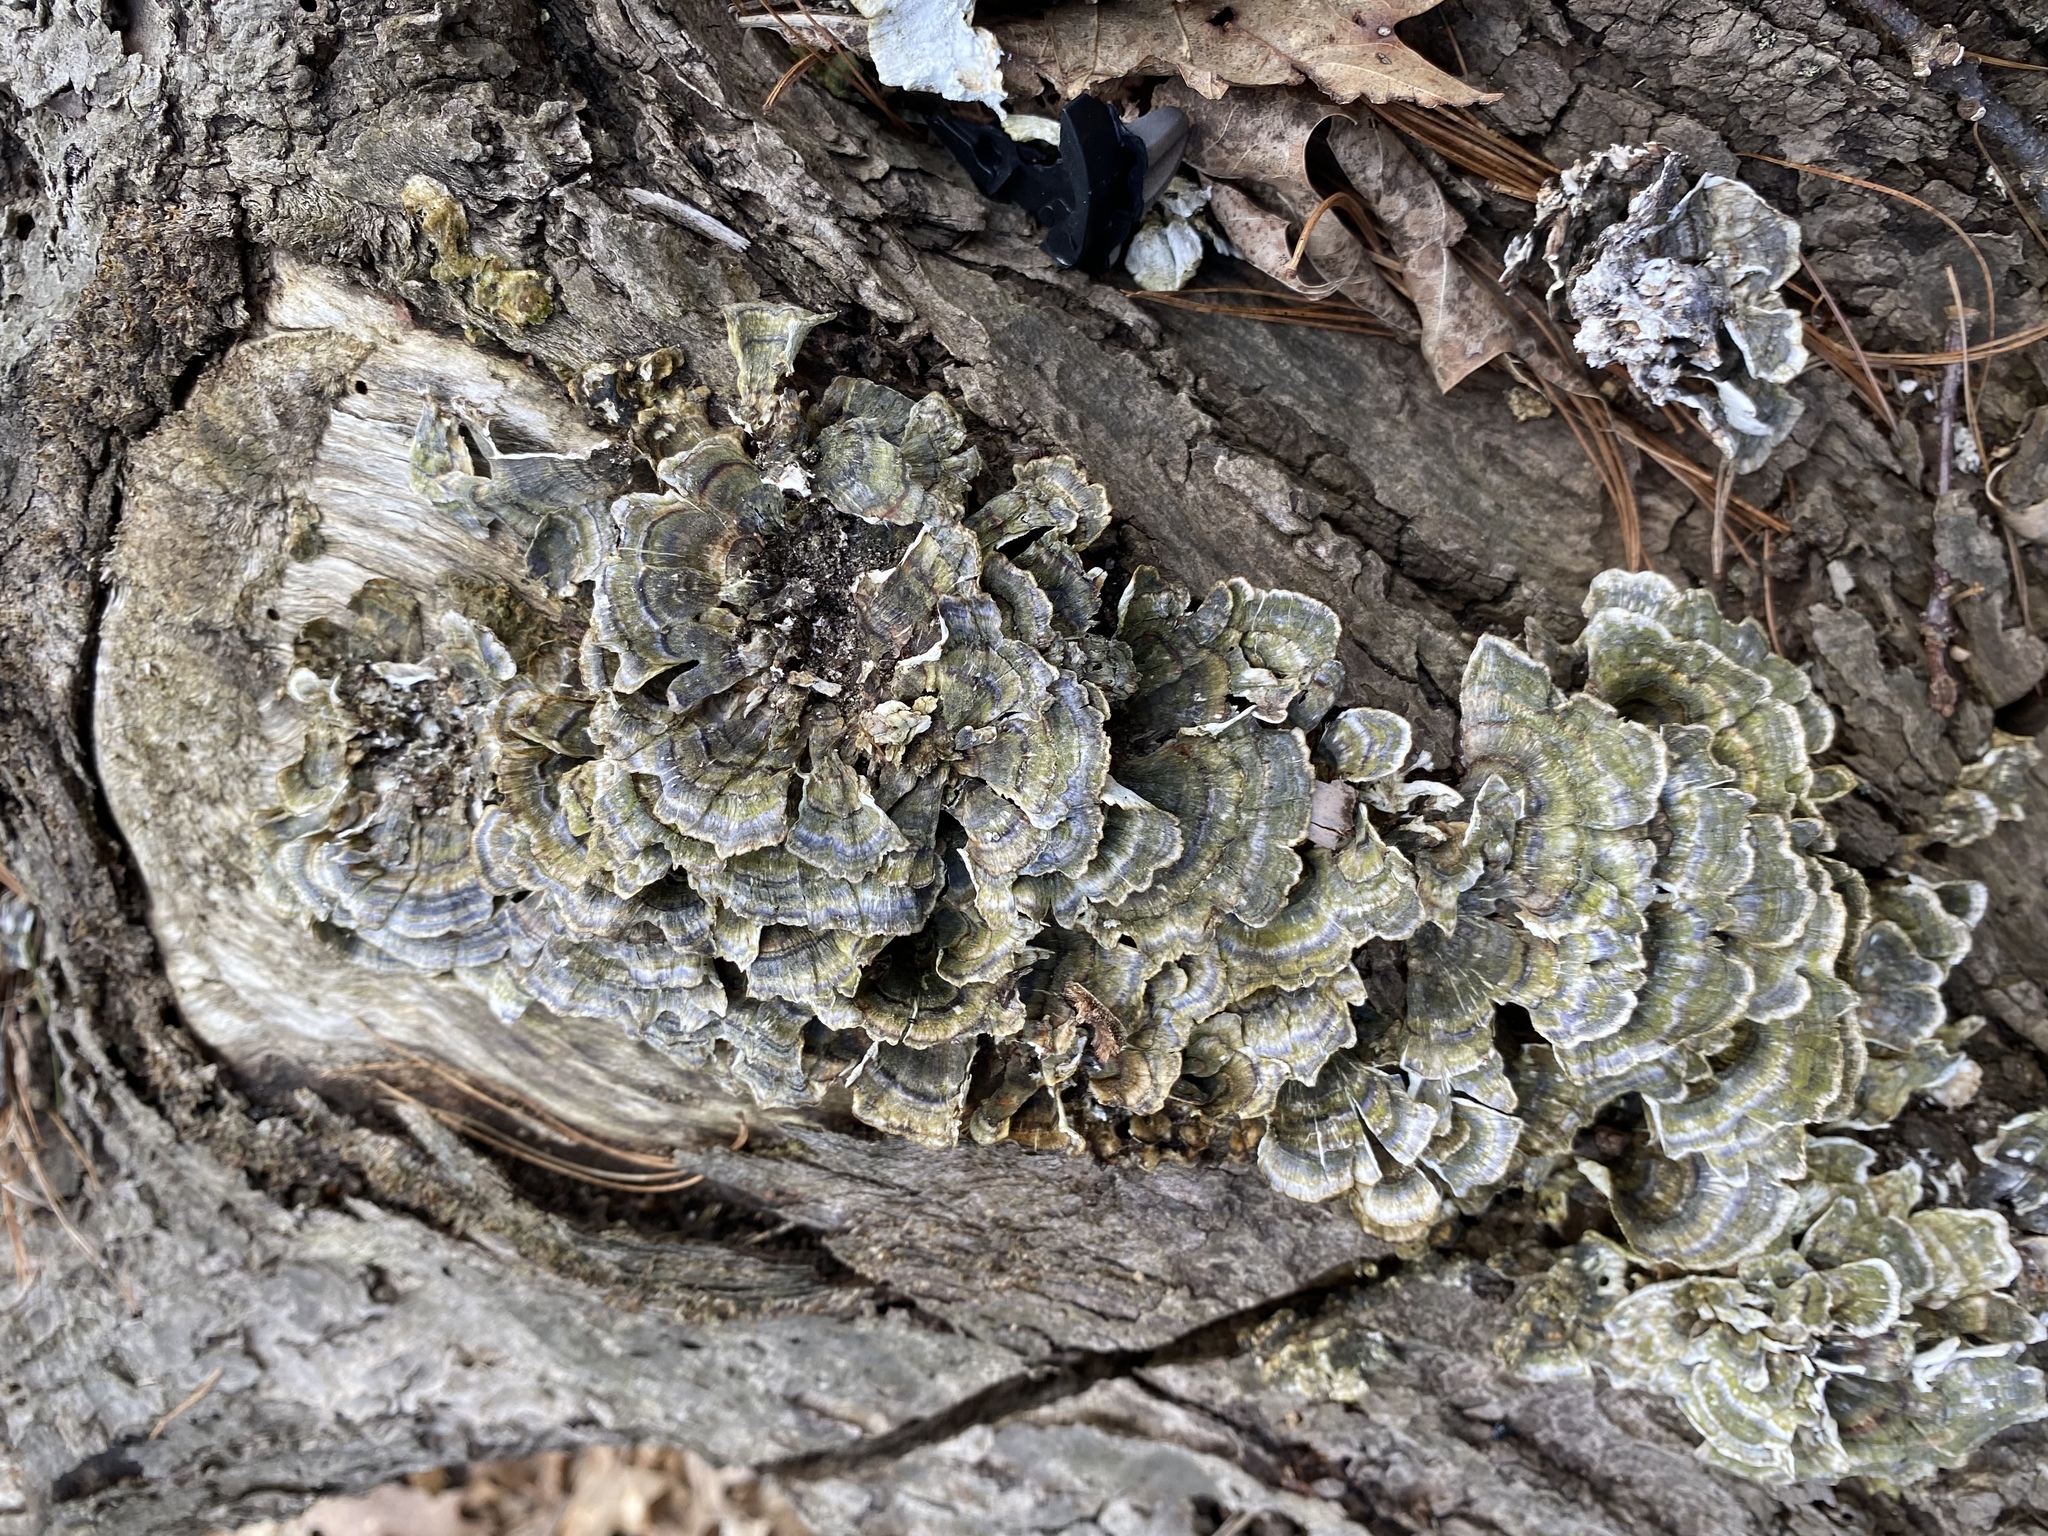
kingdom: Fungi
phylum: Basidiomycota
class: Agaricomycetes
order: Polyporales
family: Polyporaceae
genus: Trametes
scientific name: Trametes versicolor
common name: Turkeytail
